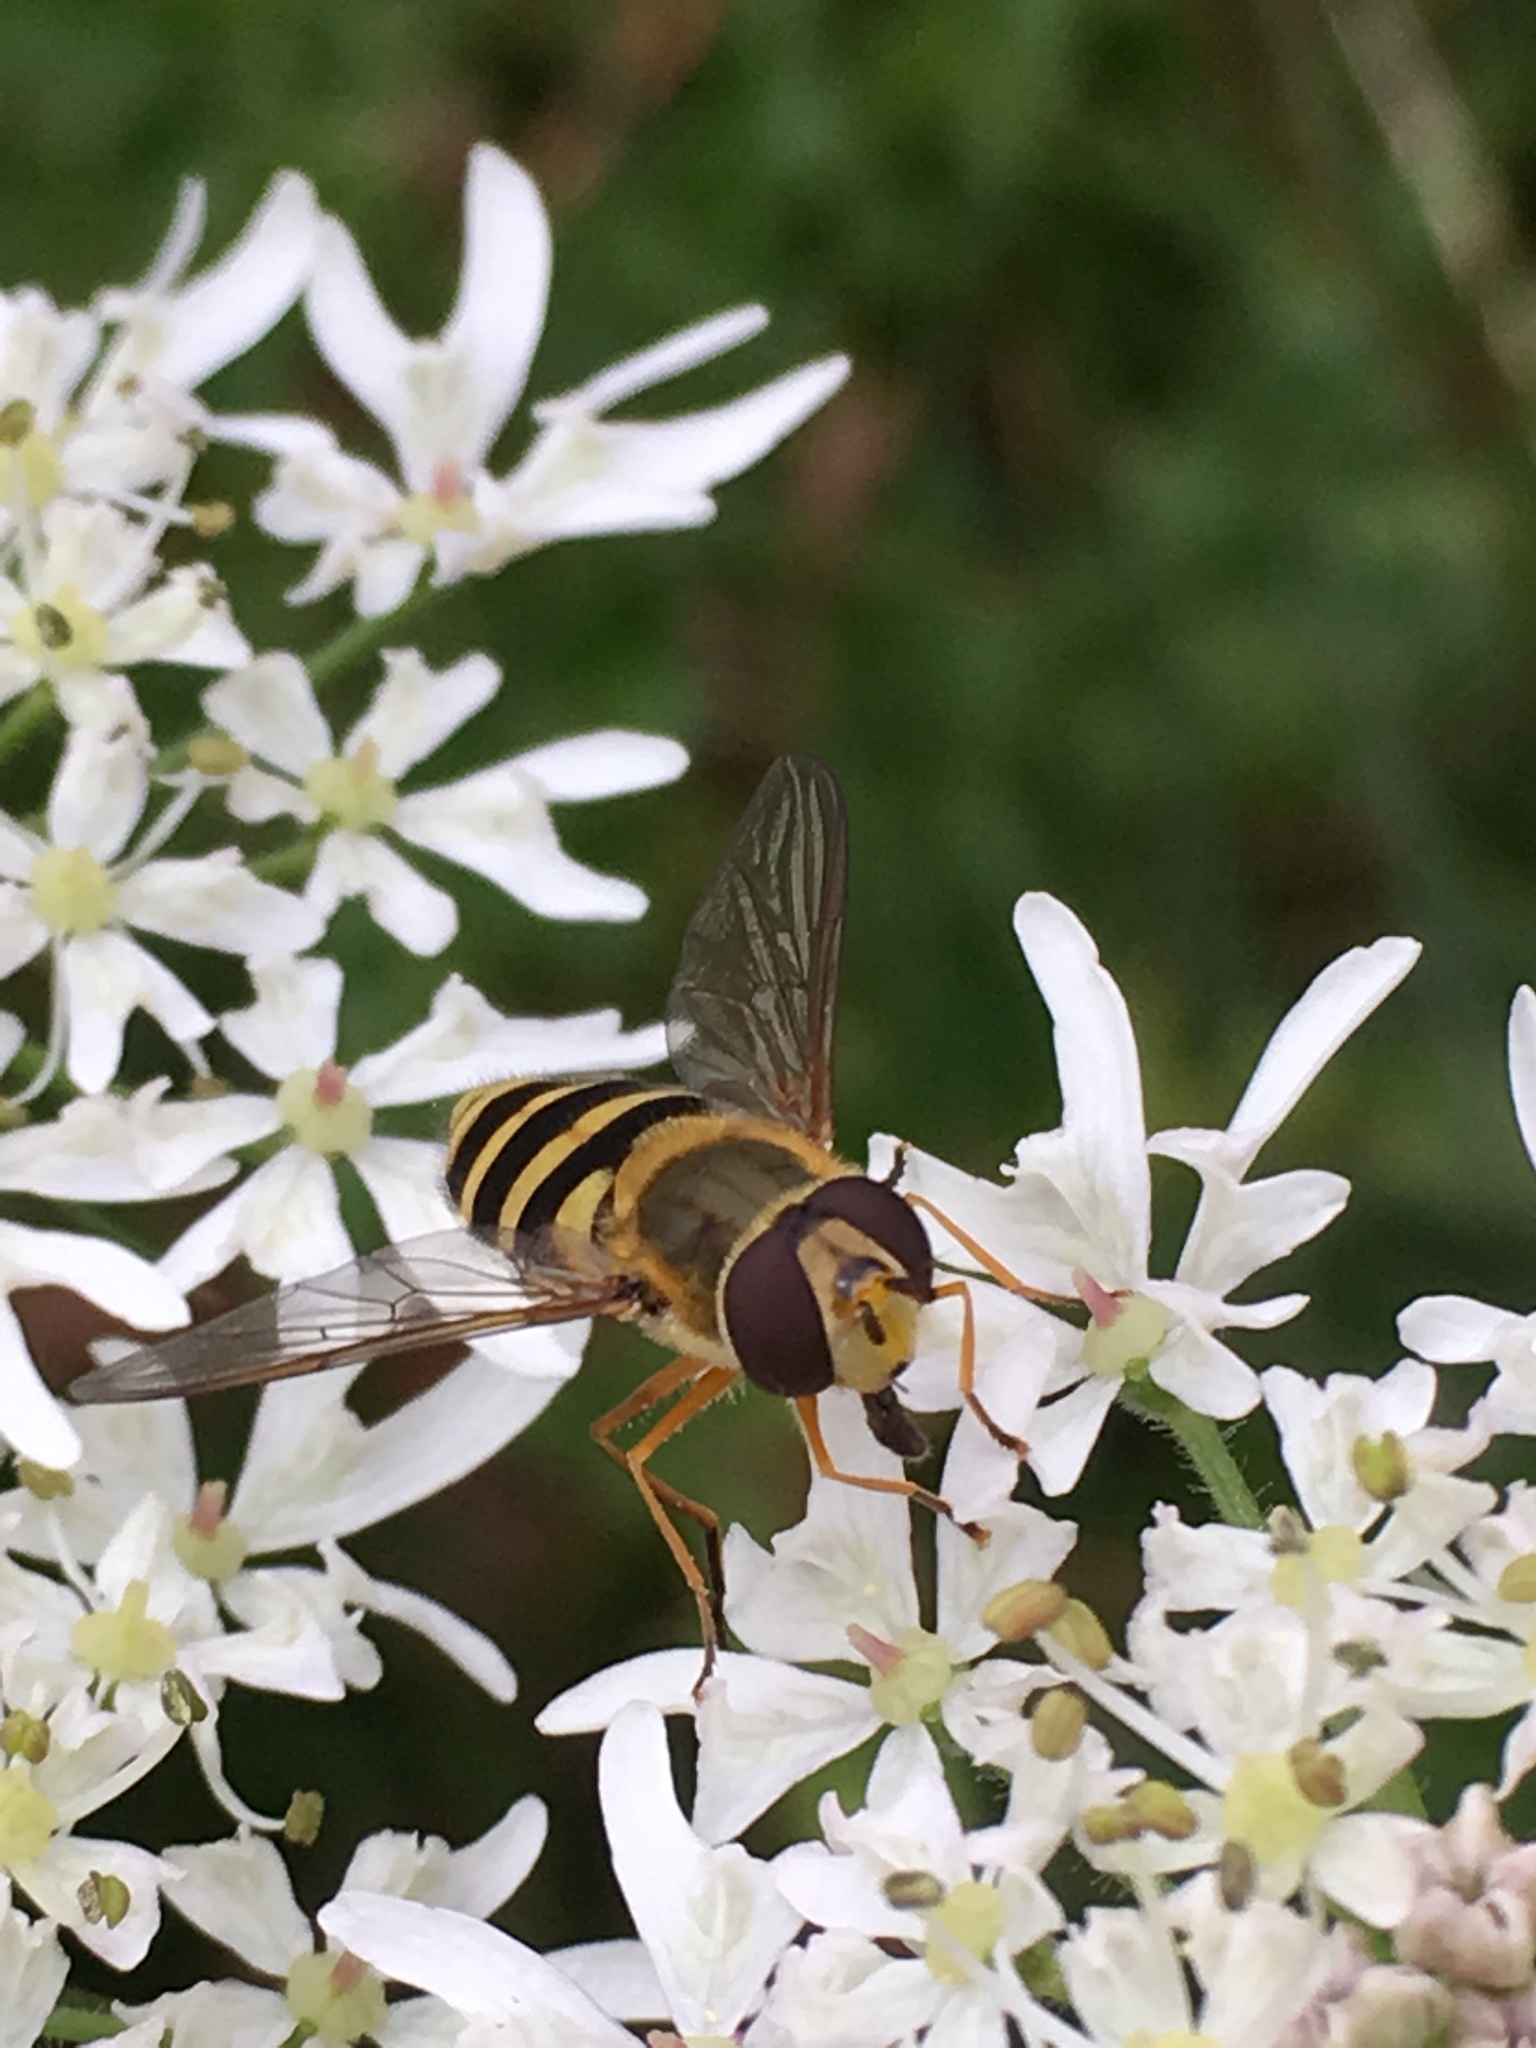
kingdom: Animalia
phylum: Arthropoda
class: Insecta
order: Diptera
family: Syrphidae
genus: Syrphus
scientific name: Syrphus ribesii
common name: Common flower fly
